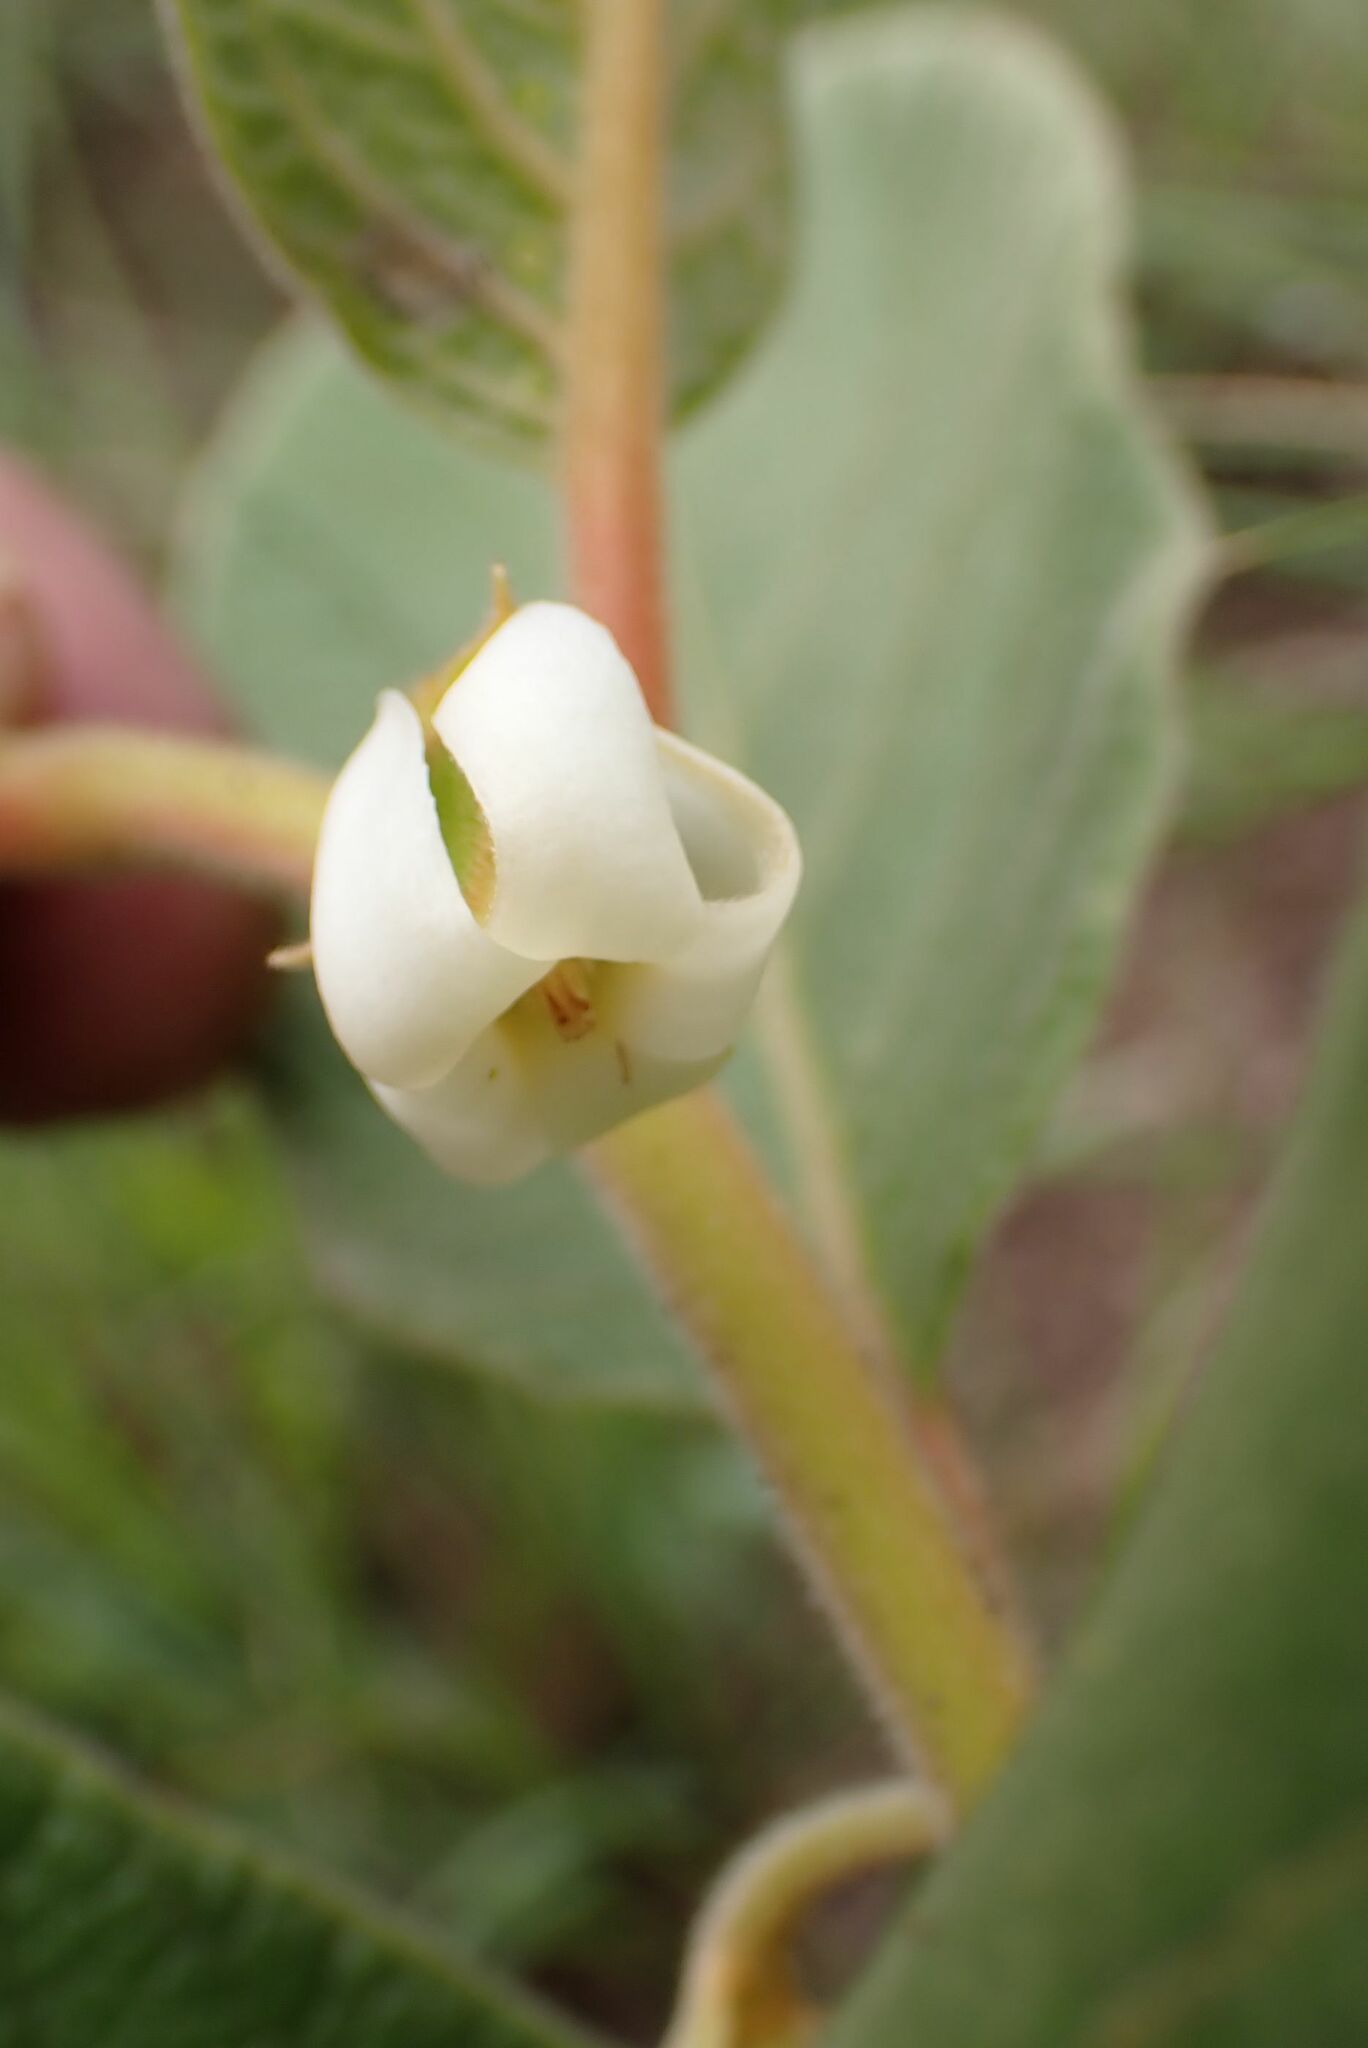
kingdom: Plantae
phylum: Tracheophyta
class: Magnoliopsida
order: Ericales
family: Ebenaceae
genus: Diospyros
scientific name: Diospyros galpinii
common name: Dwarf hairy star-apple
